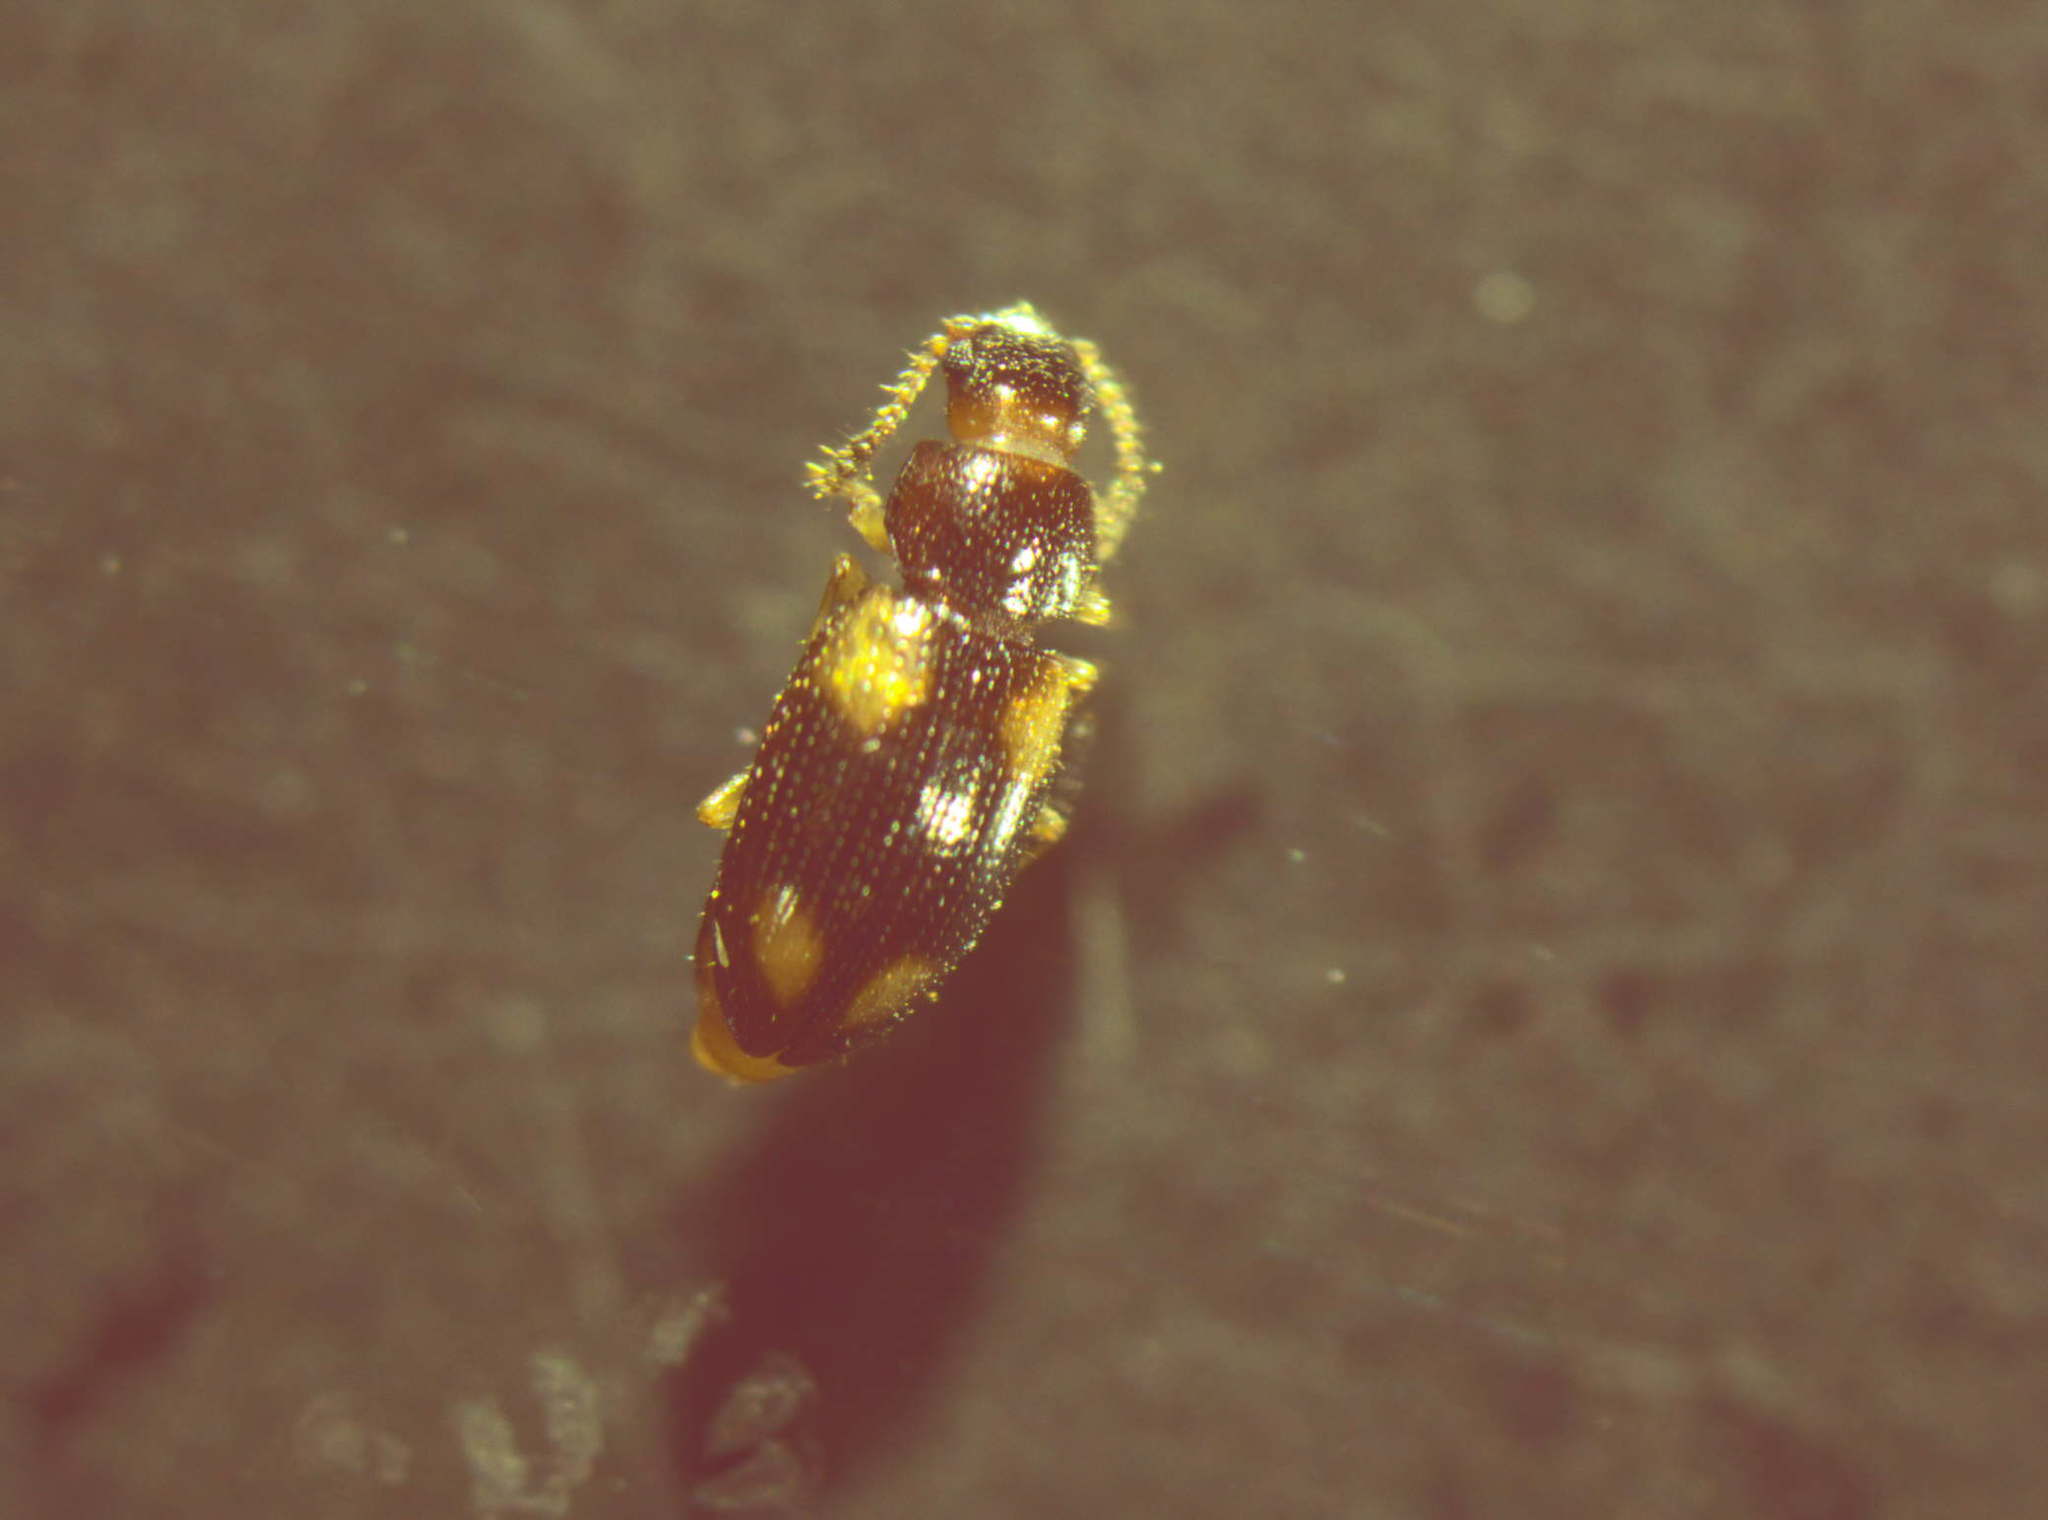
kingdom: Animalia
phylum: Arthropoda
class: Insecta
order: Coleoptera
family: Erotylidae
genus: Loberus
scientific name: Loberus nitens
